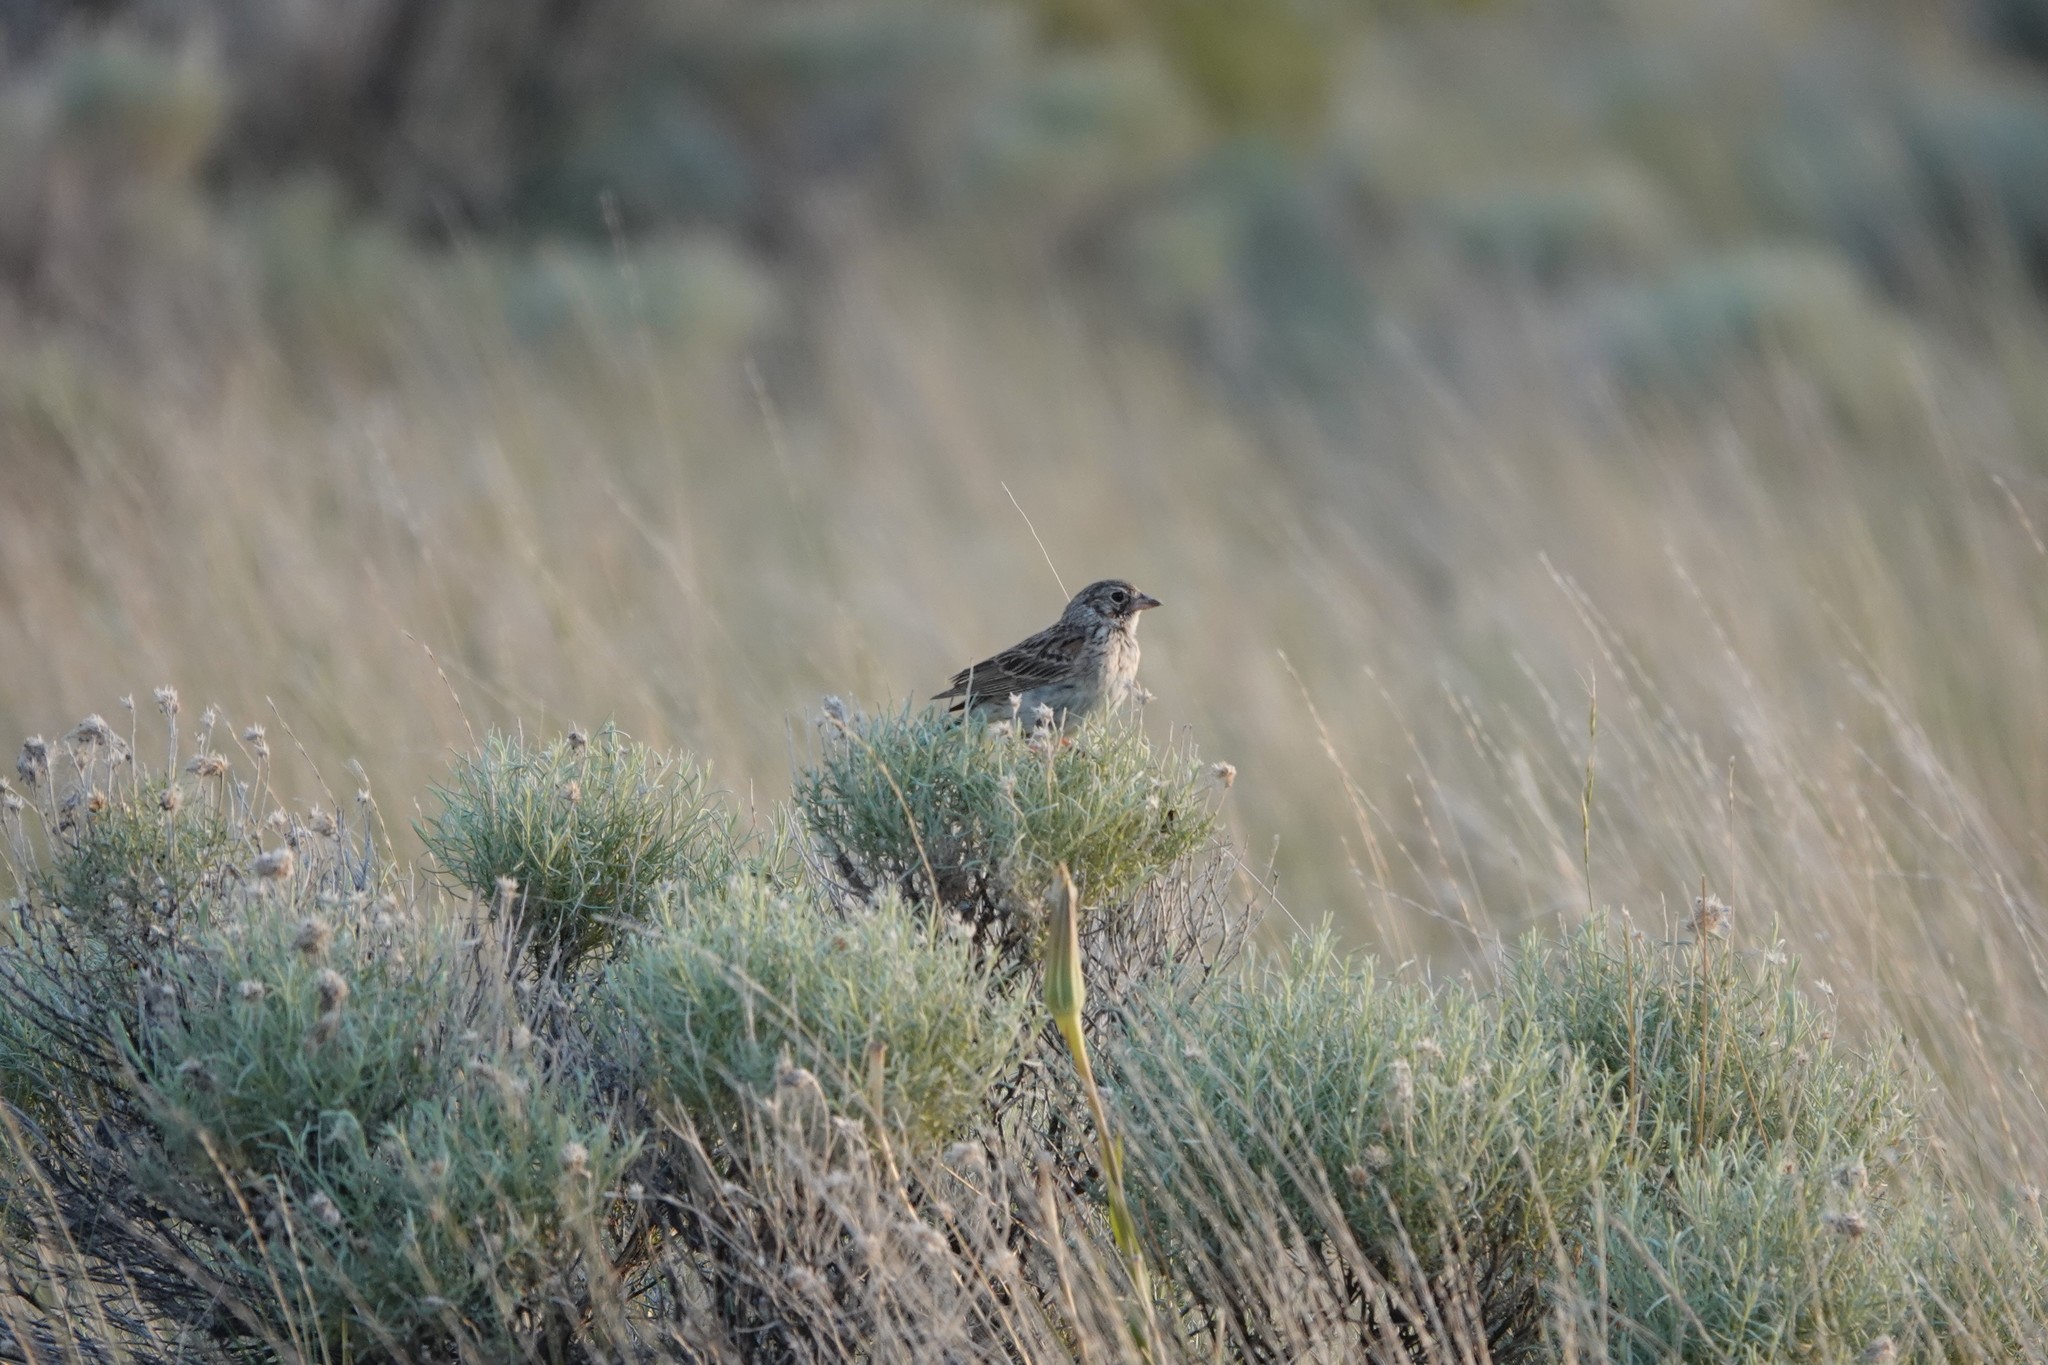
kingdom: Animalia
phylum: Chordata
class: Aves
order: Passeriformes
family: Passerellidae
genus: Pooecetes
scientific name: Pooecetes gramineus
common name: Vesper sparrow
